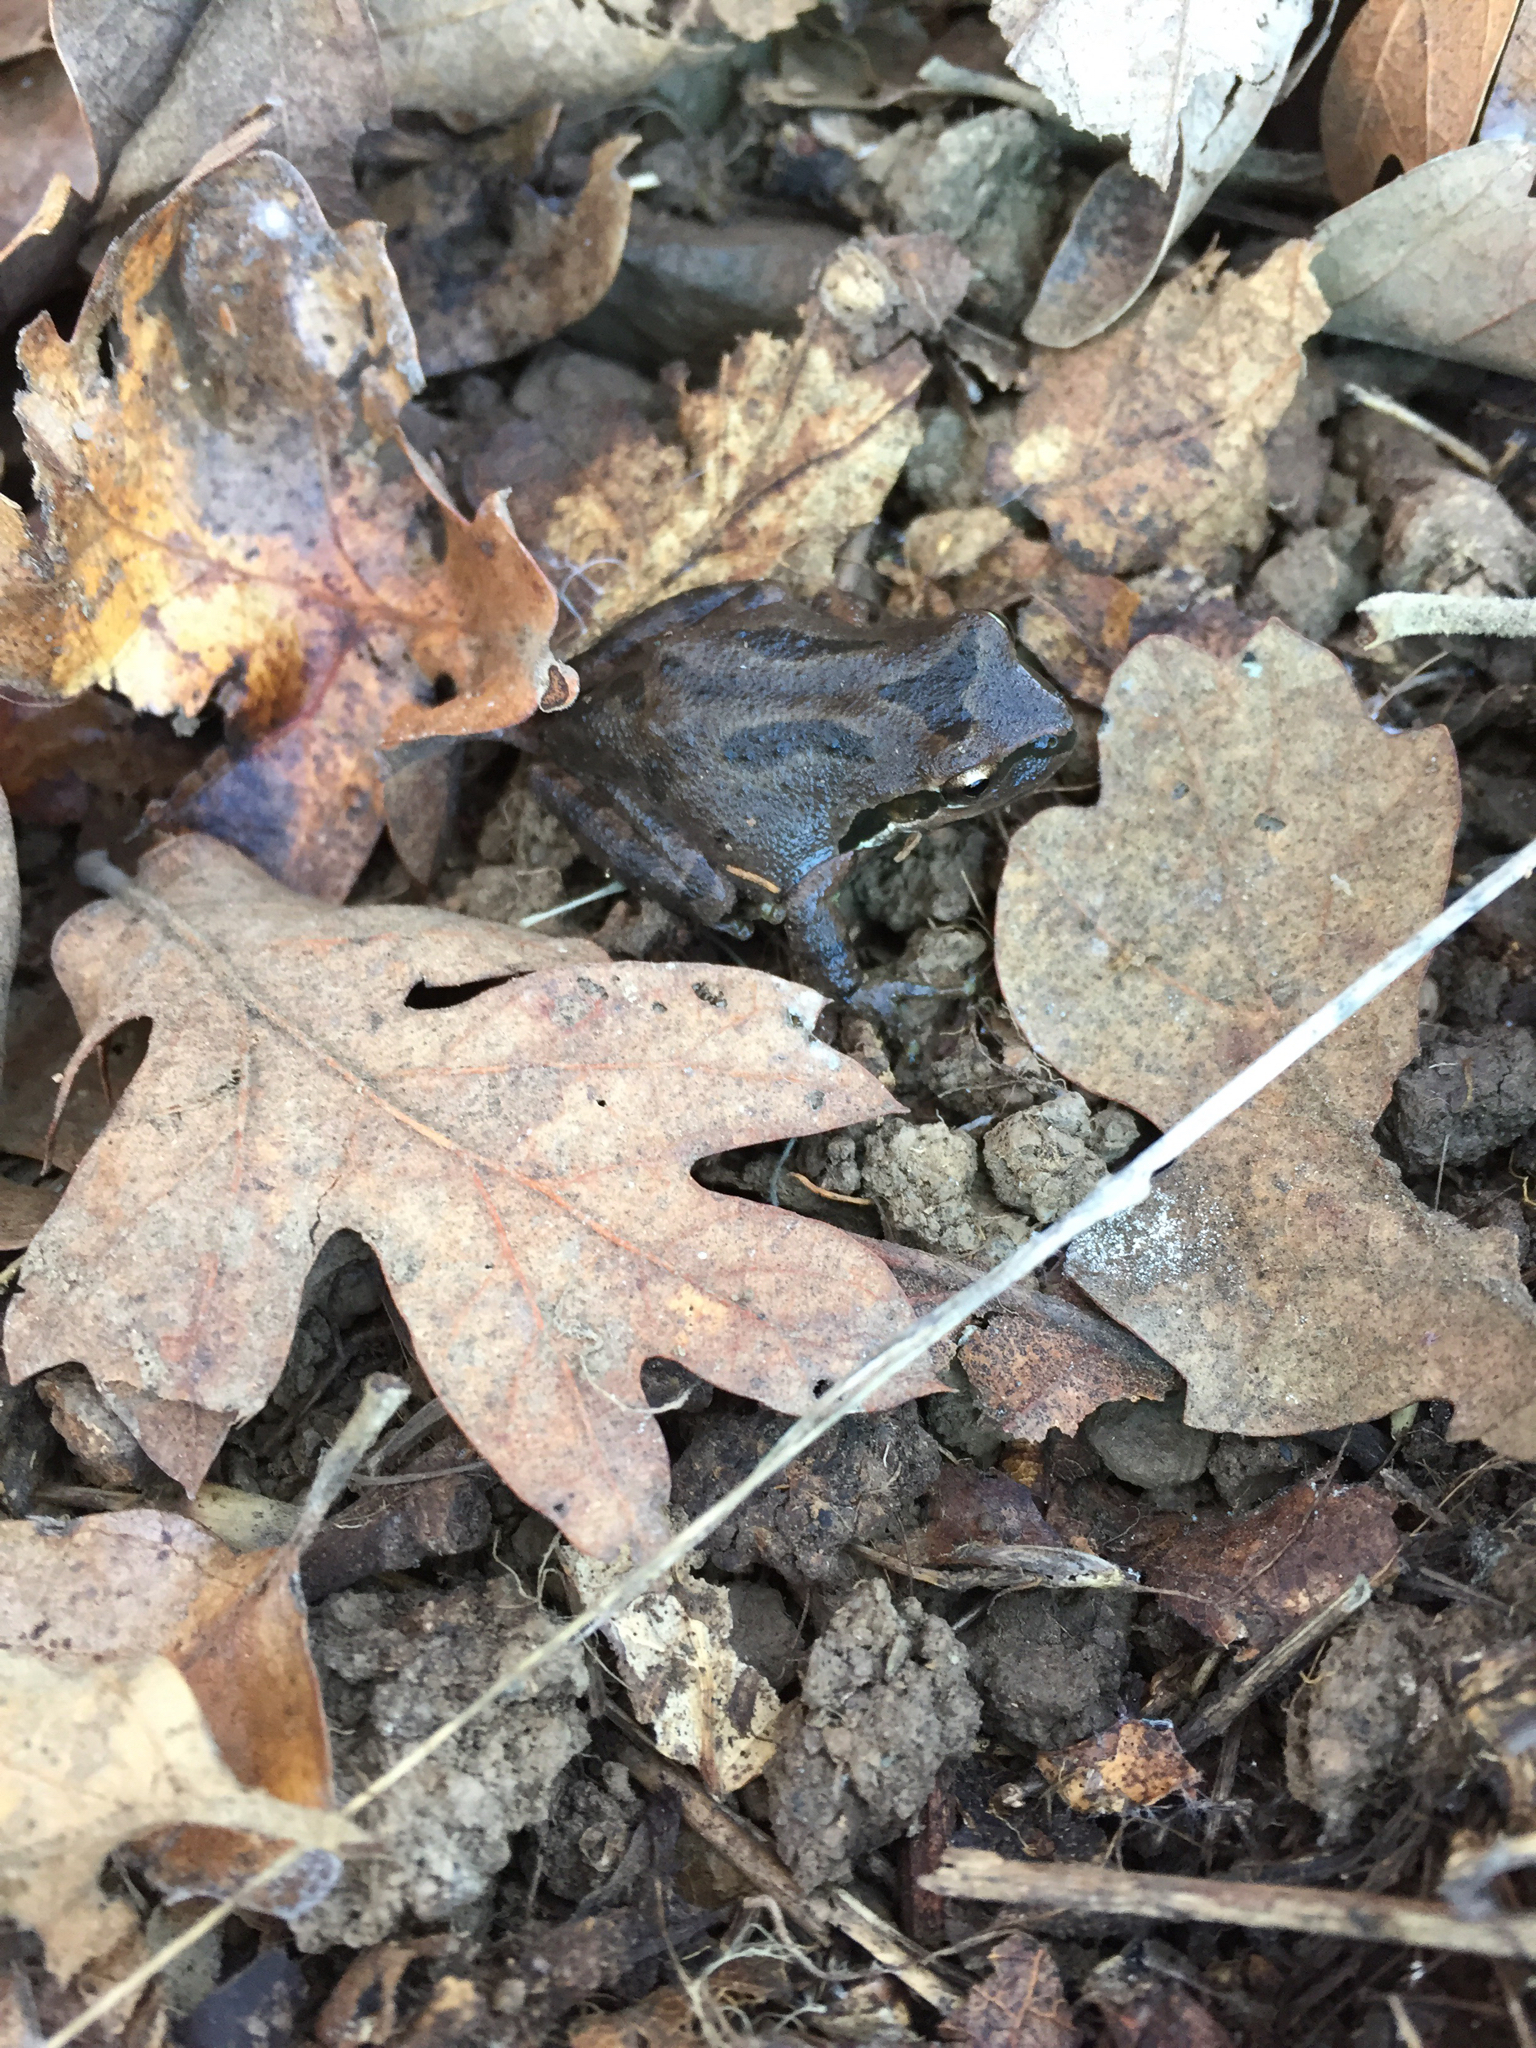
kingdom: Animalia
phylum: Chordata
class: Amphibia
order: Anura
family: Hylidae
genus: Pseudacris
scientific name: Pseudacris regilla
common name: Pacific chorus frog
